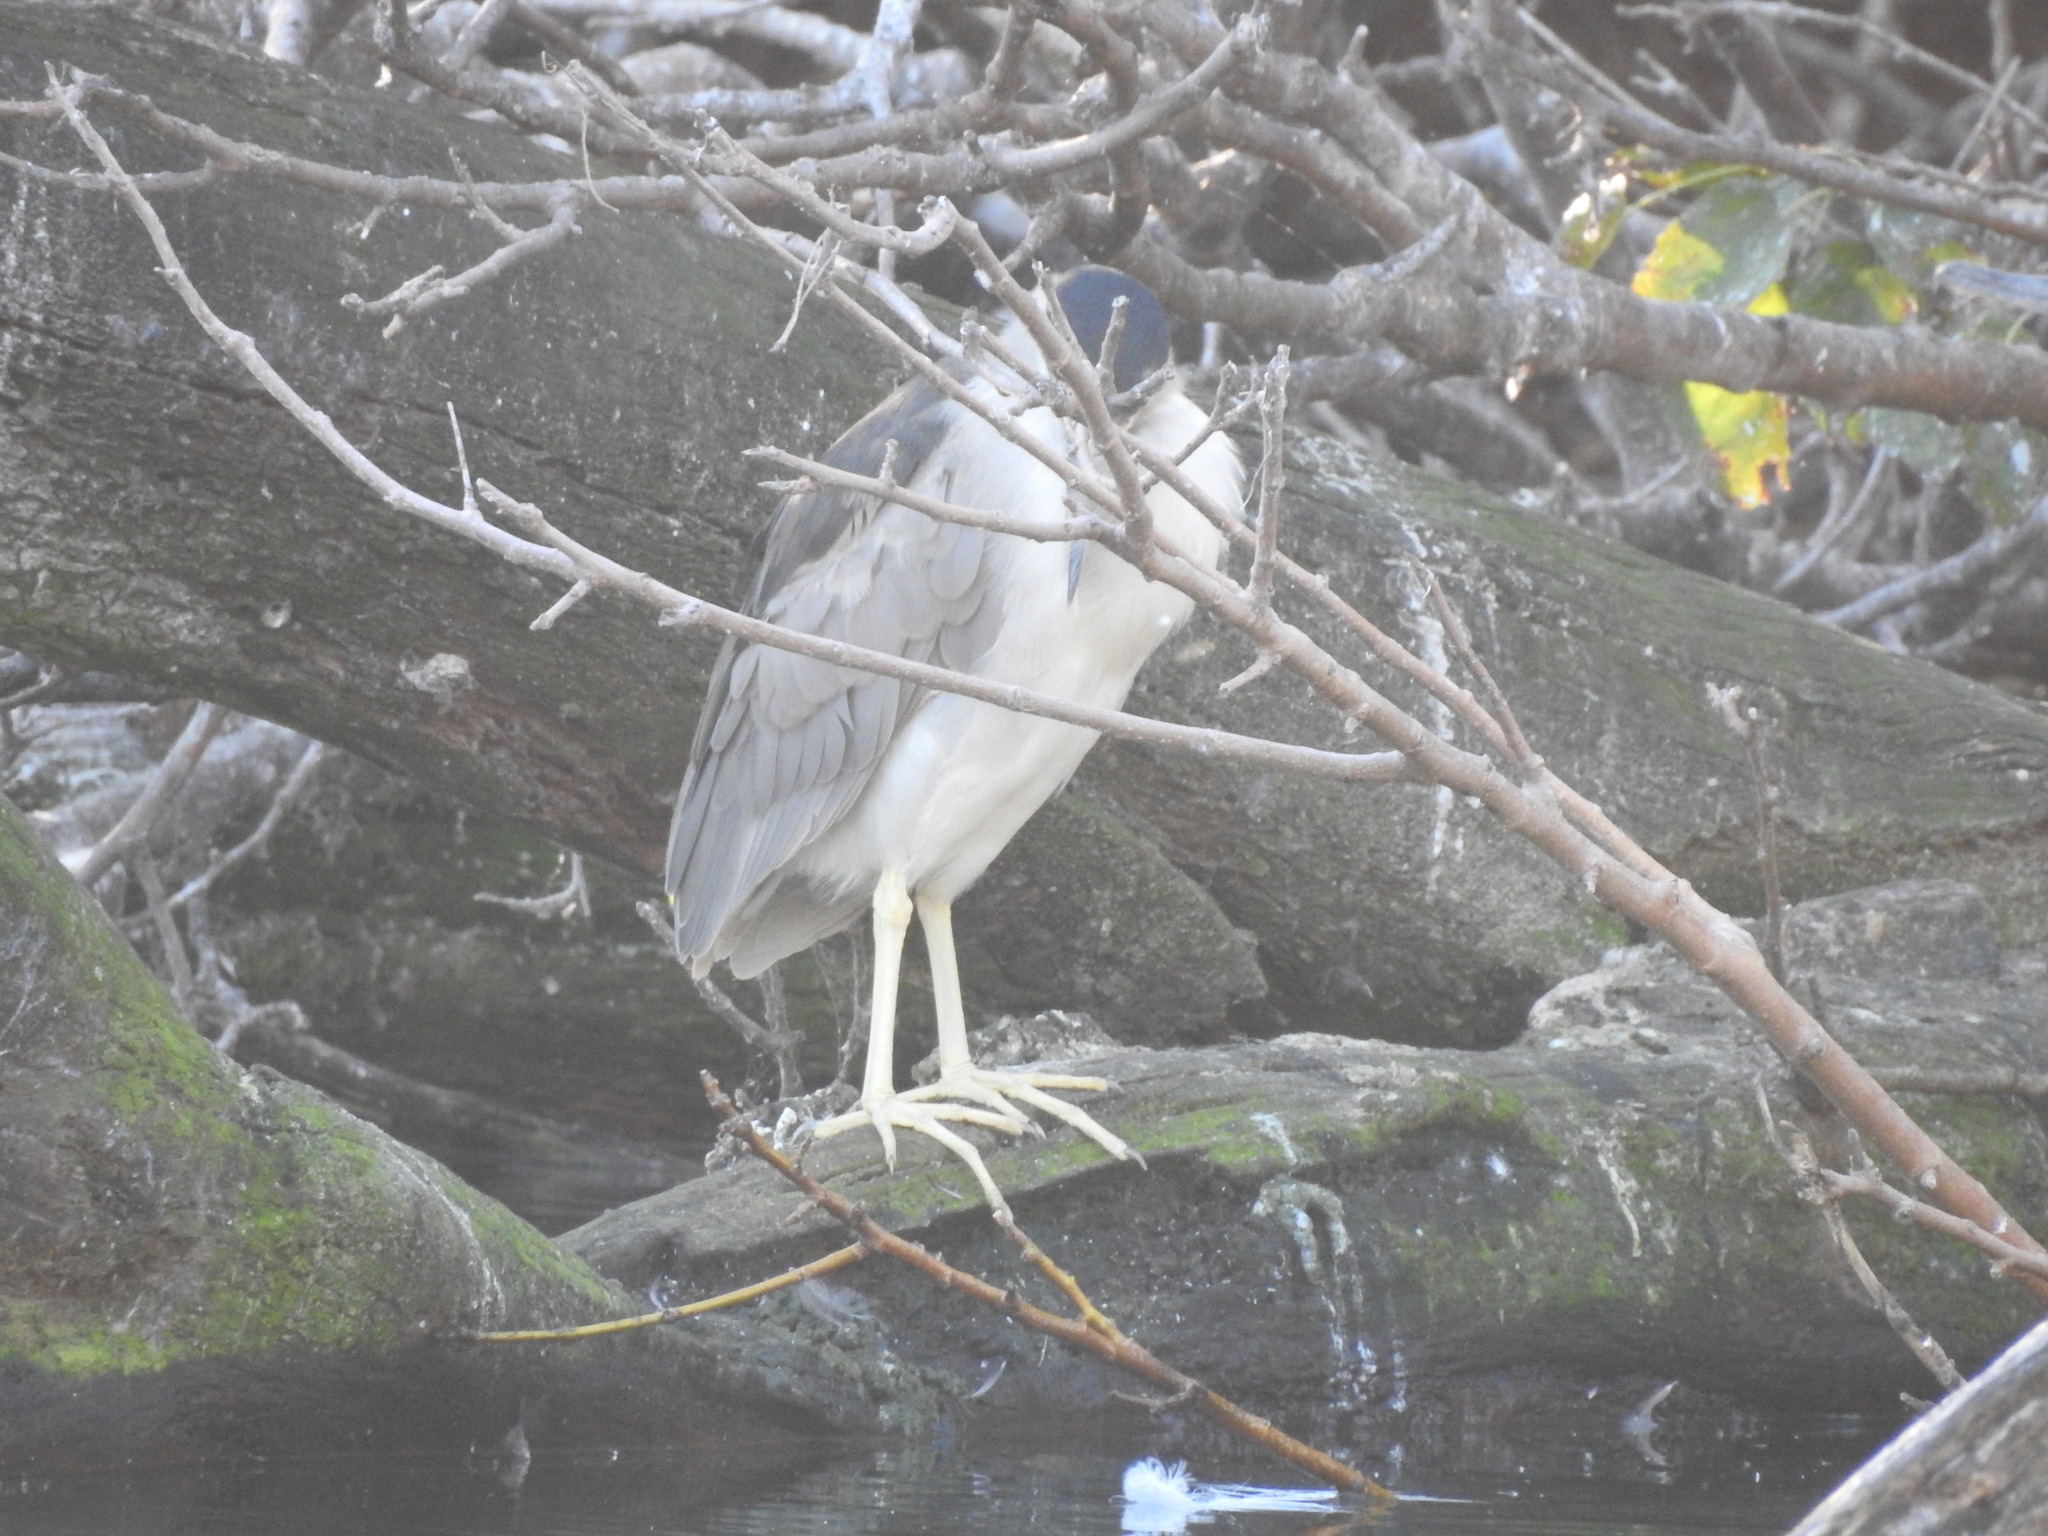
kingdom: Animalia
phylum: Chordata
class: Aves
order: Pelecaniformes
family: Ardeidae
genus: Nycticorax
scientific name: Nycticorax nycticorax
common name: Black-crowned night heron
